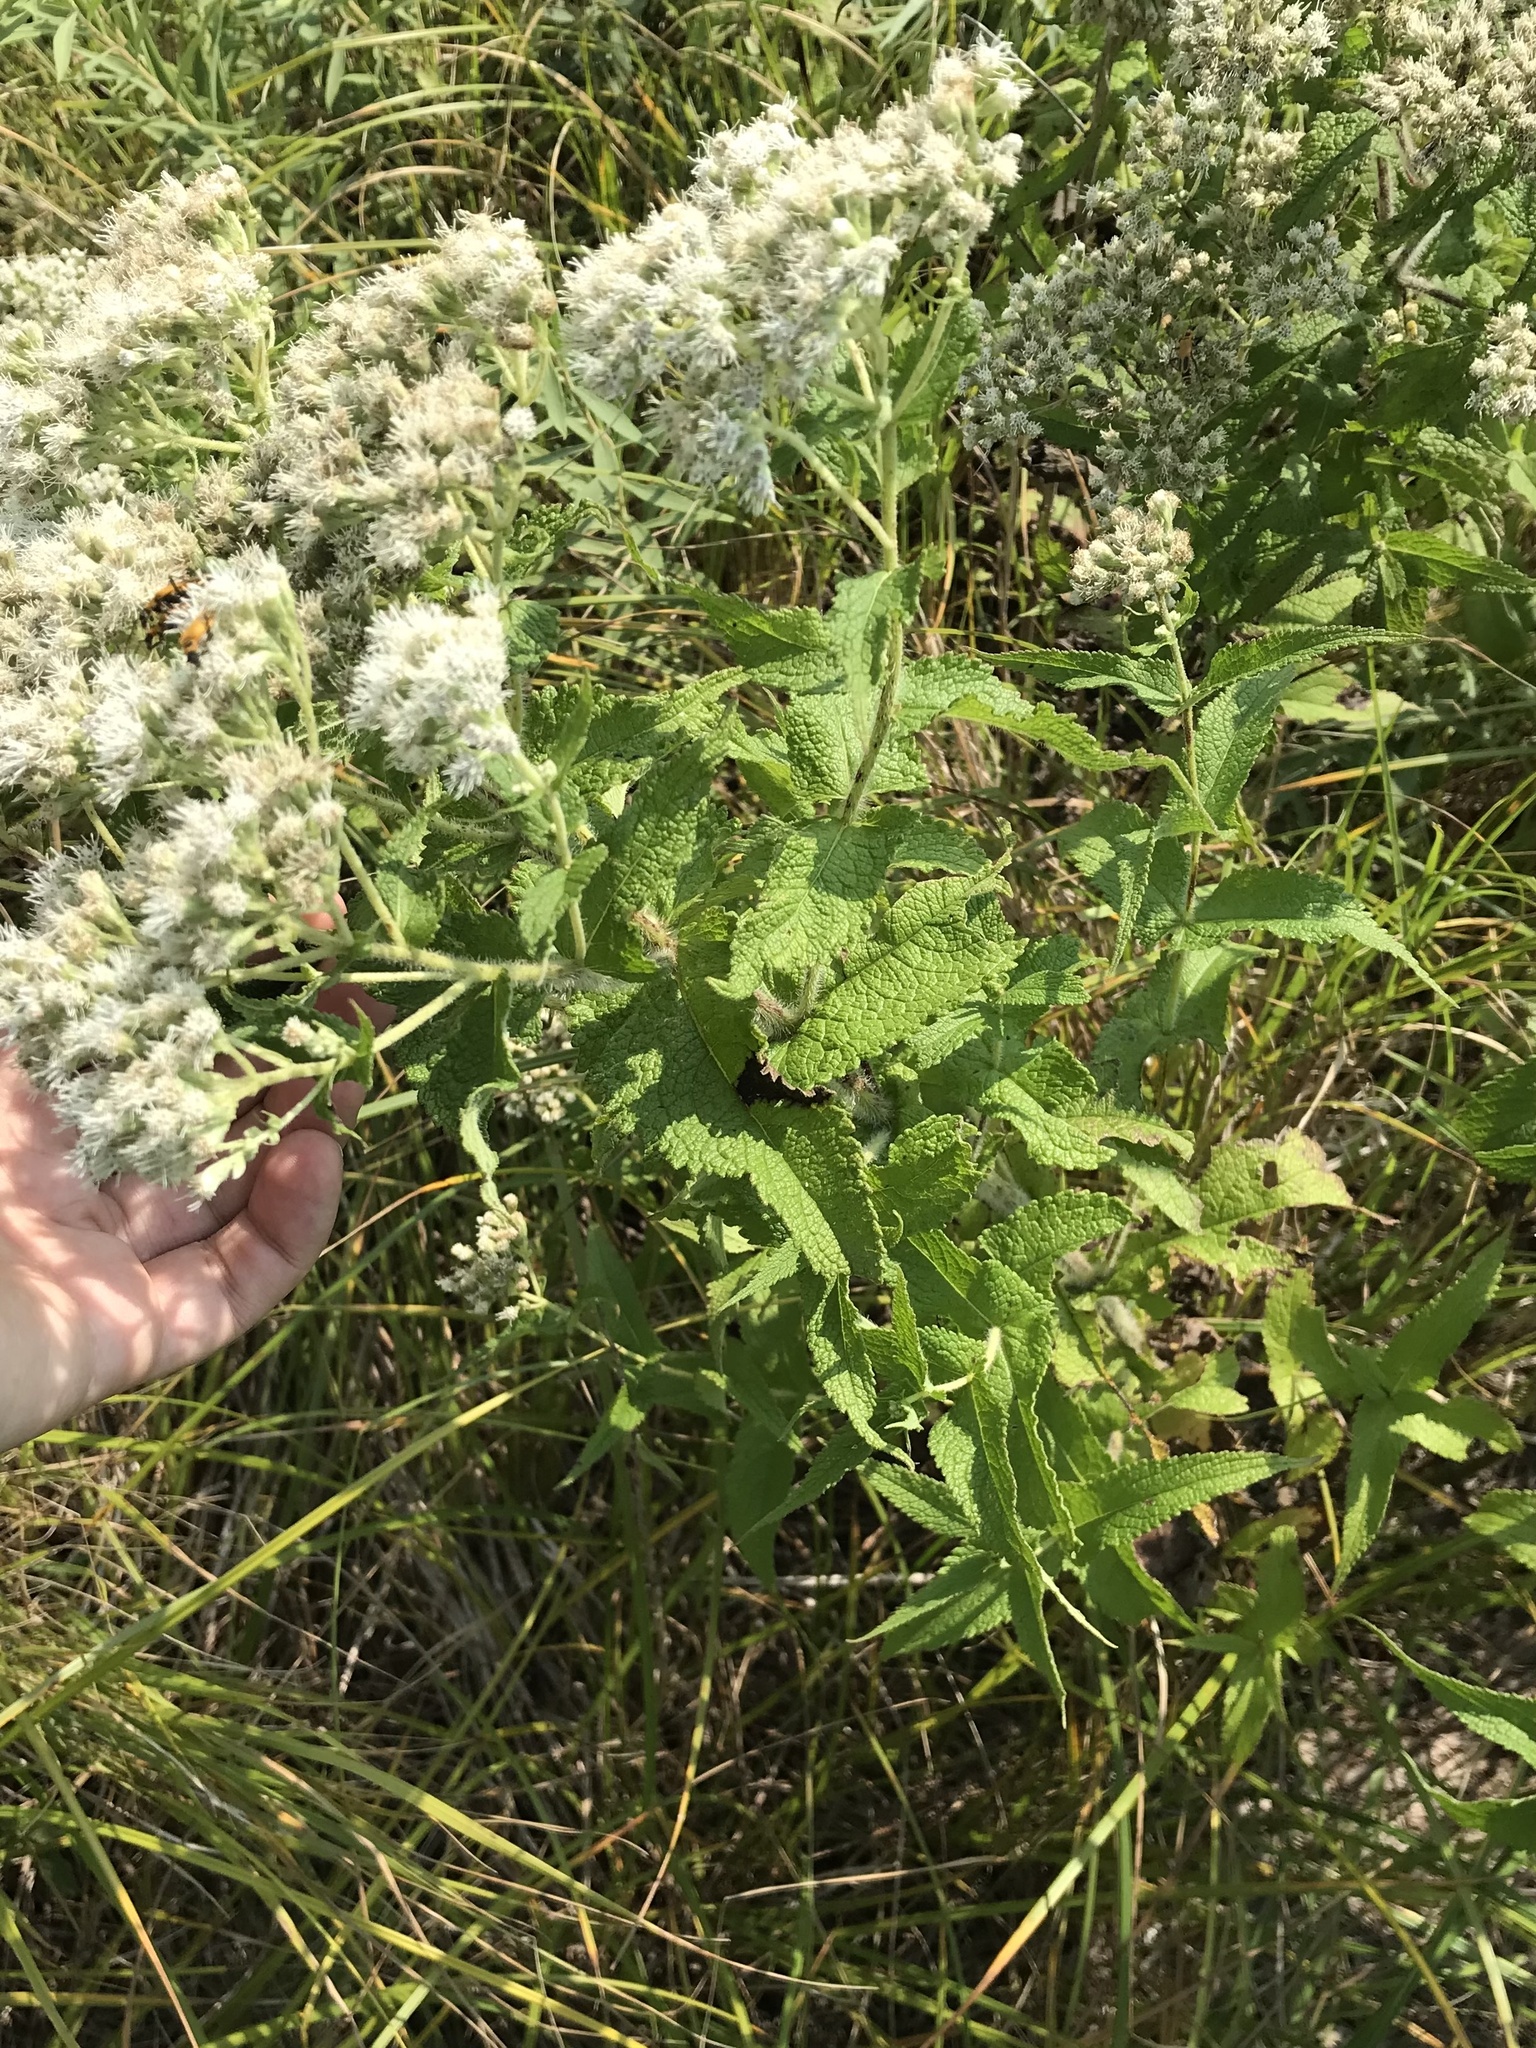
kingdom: Plantae
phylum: Tracheophyta
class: Magnoliopsida
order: Asterales
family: Asteraceae
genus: Eupatorium
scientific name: Eupatorium perfoliatum
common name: Boneset
